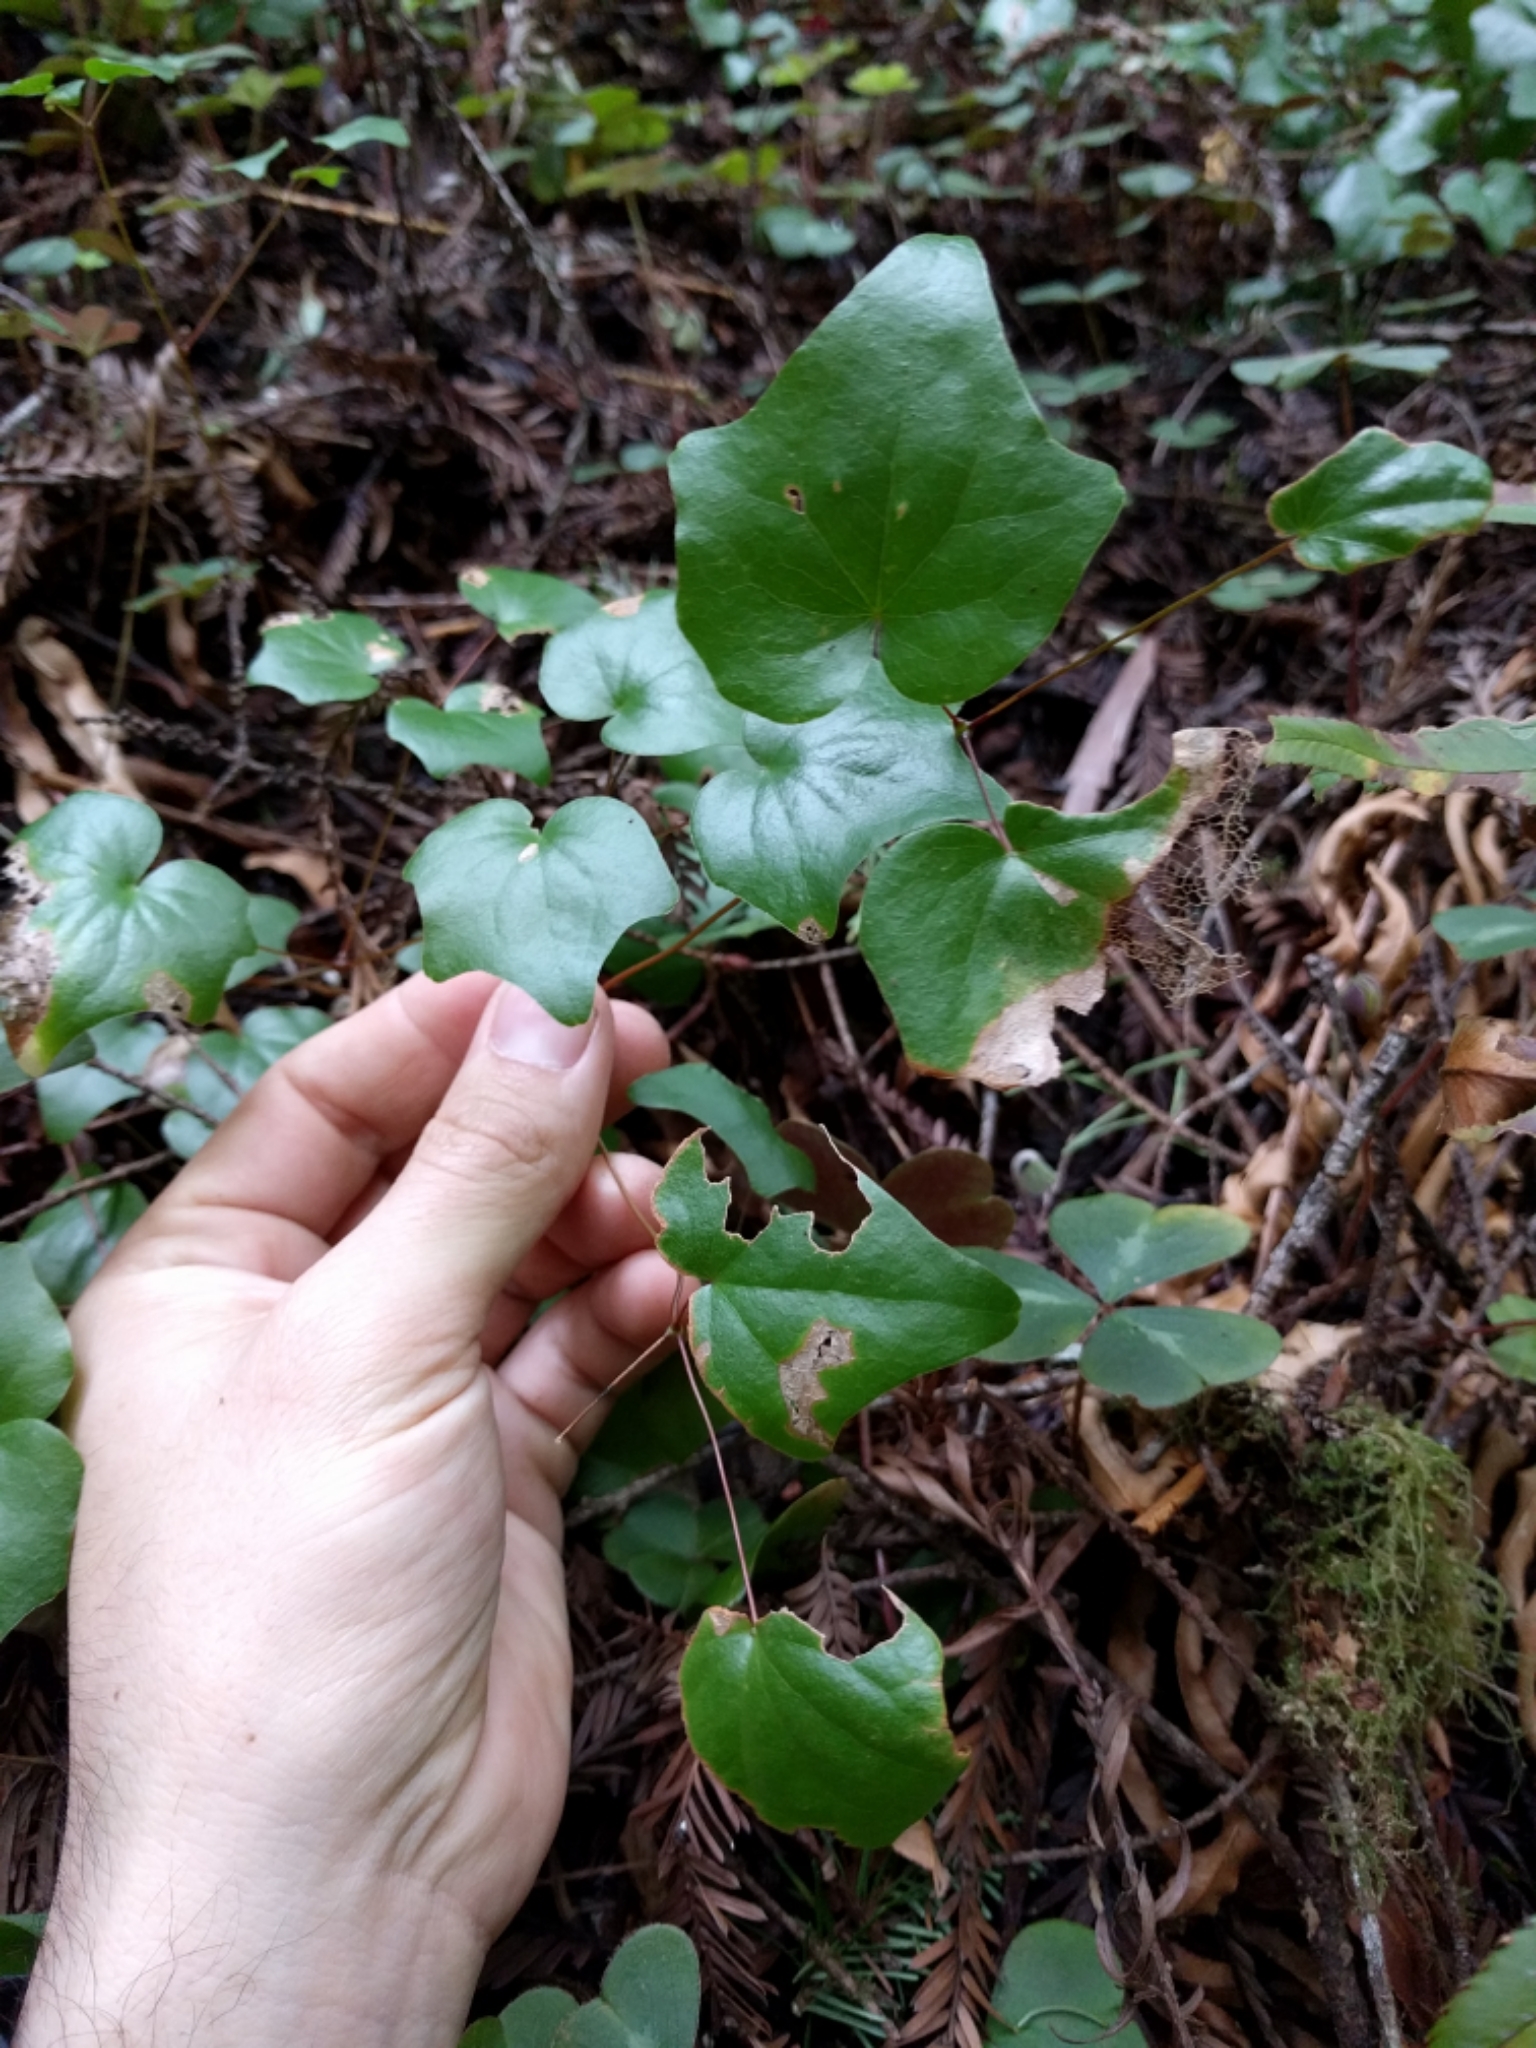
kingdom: Plantae
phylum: Tracheophyta
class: Magnoliopsida
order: Ranunculales
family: Berberidaceae
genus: Vancouveria
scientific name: Vancouveria planipetala
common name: Redwood-ivy
